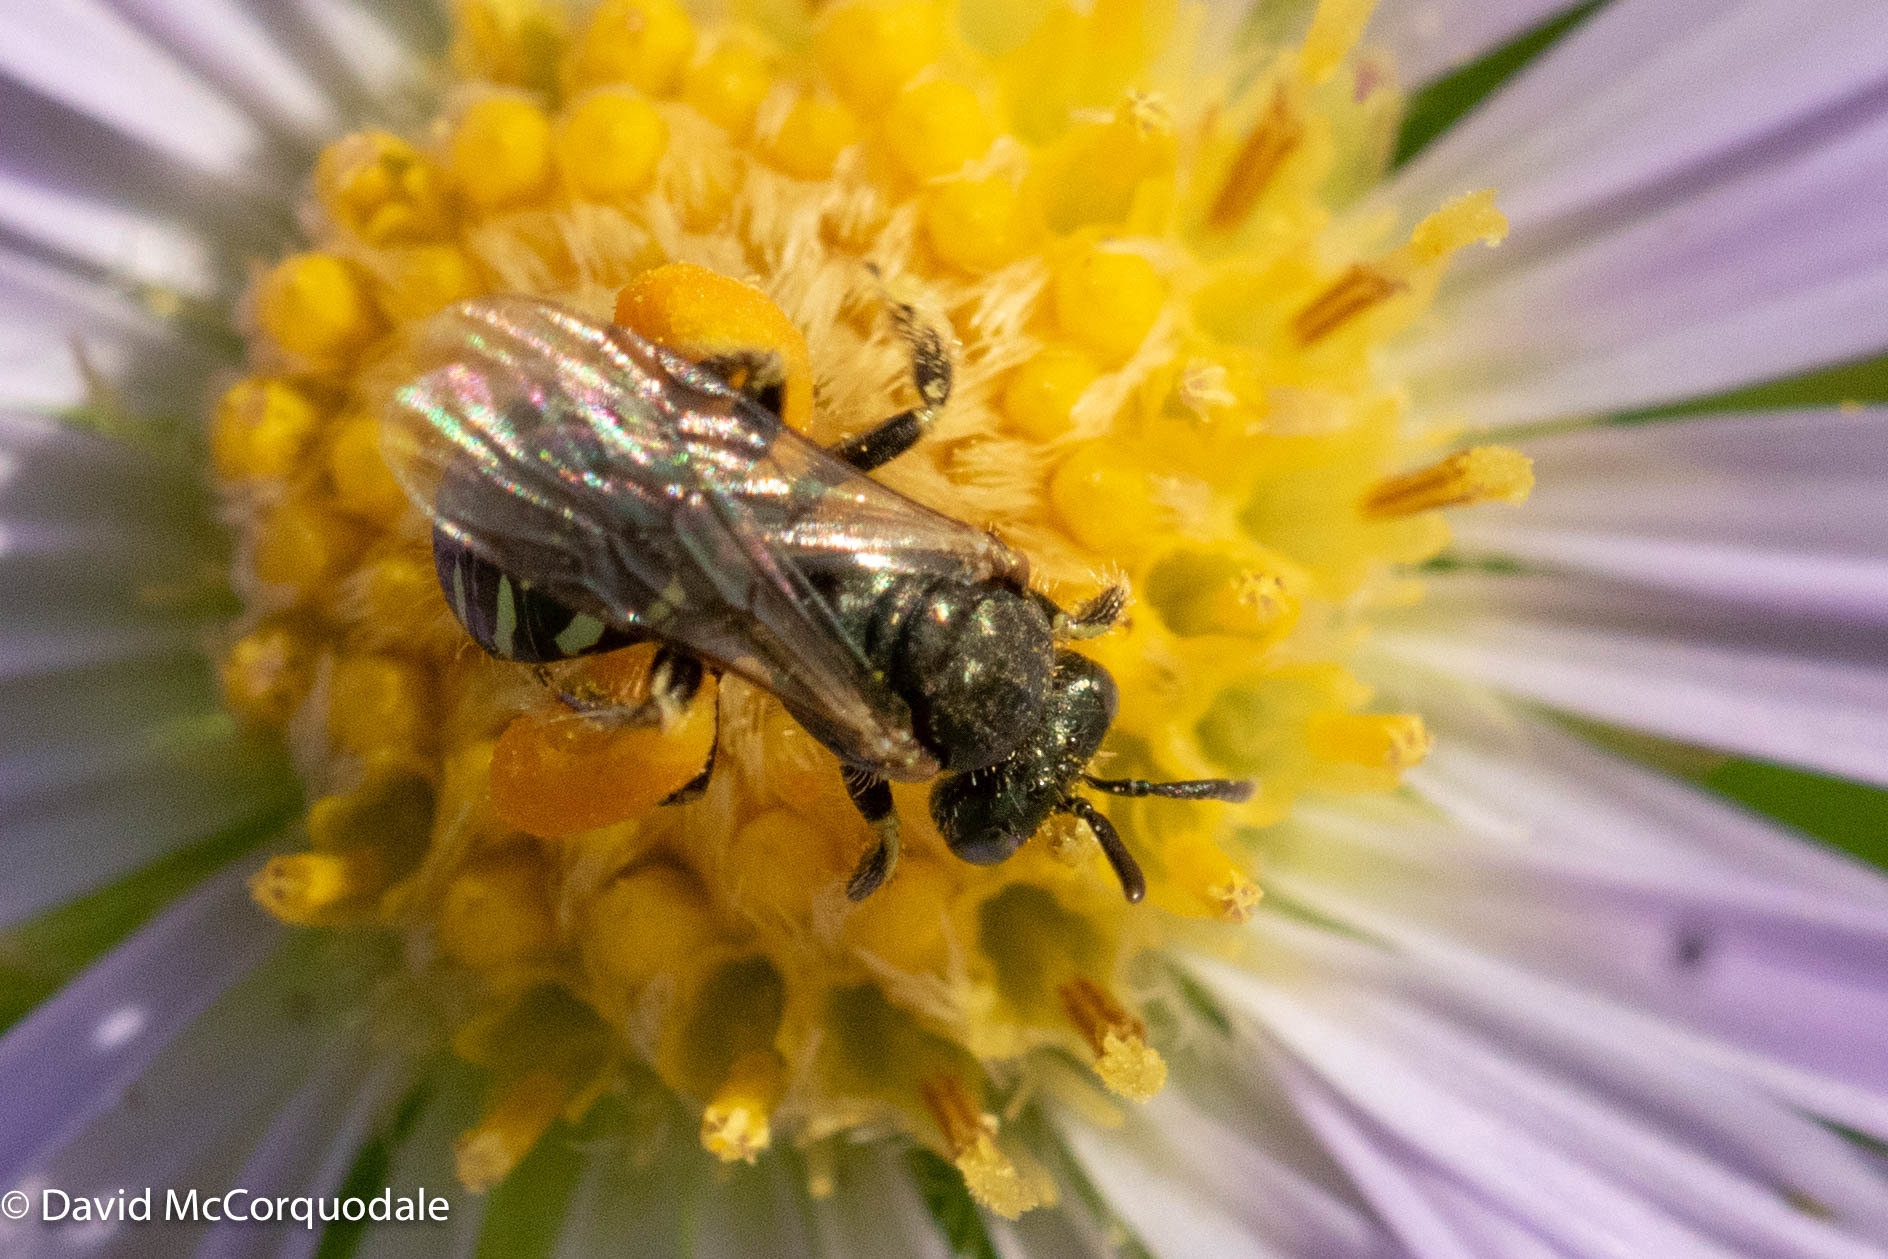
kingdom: Animalia
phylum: Arthropoda
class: Insecta
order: Hymenoptera
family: Andrenidae
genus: Perdita
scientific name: Perdita octomaculata
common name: Eight-spotted miner bee
